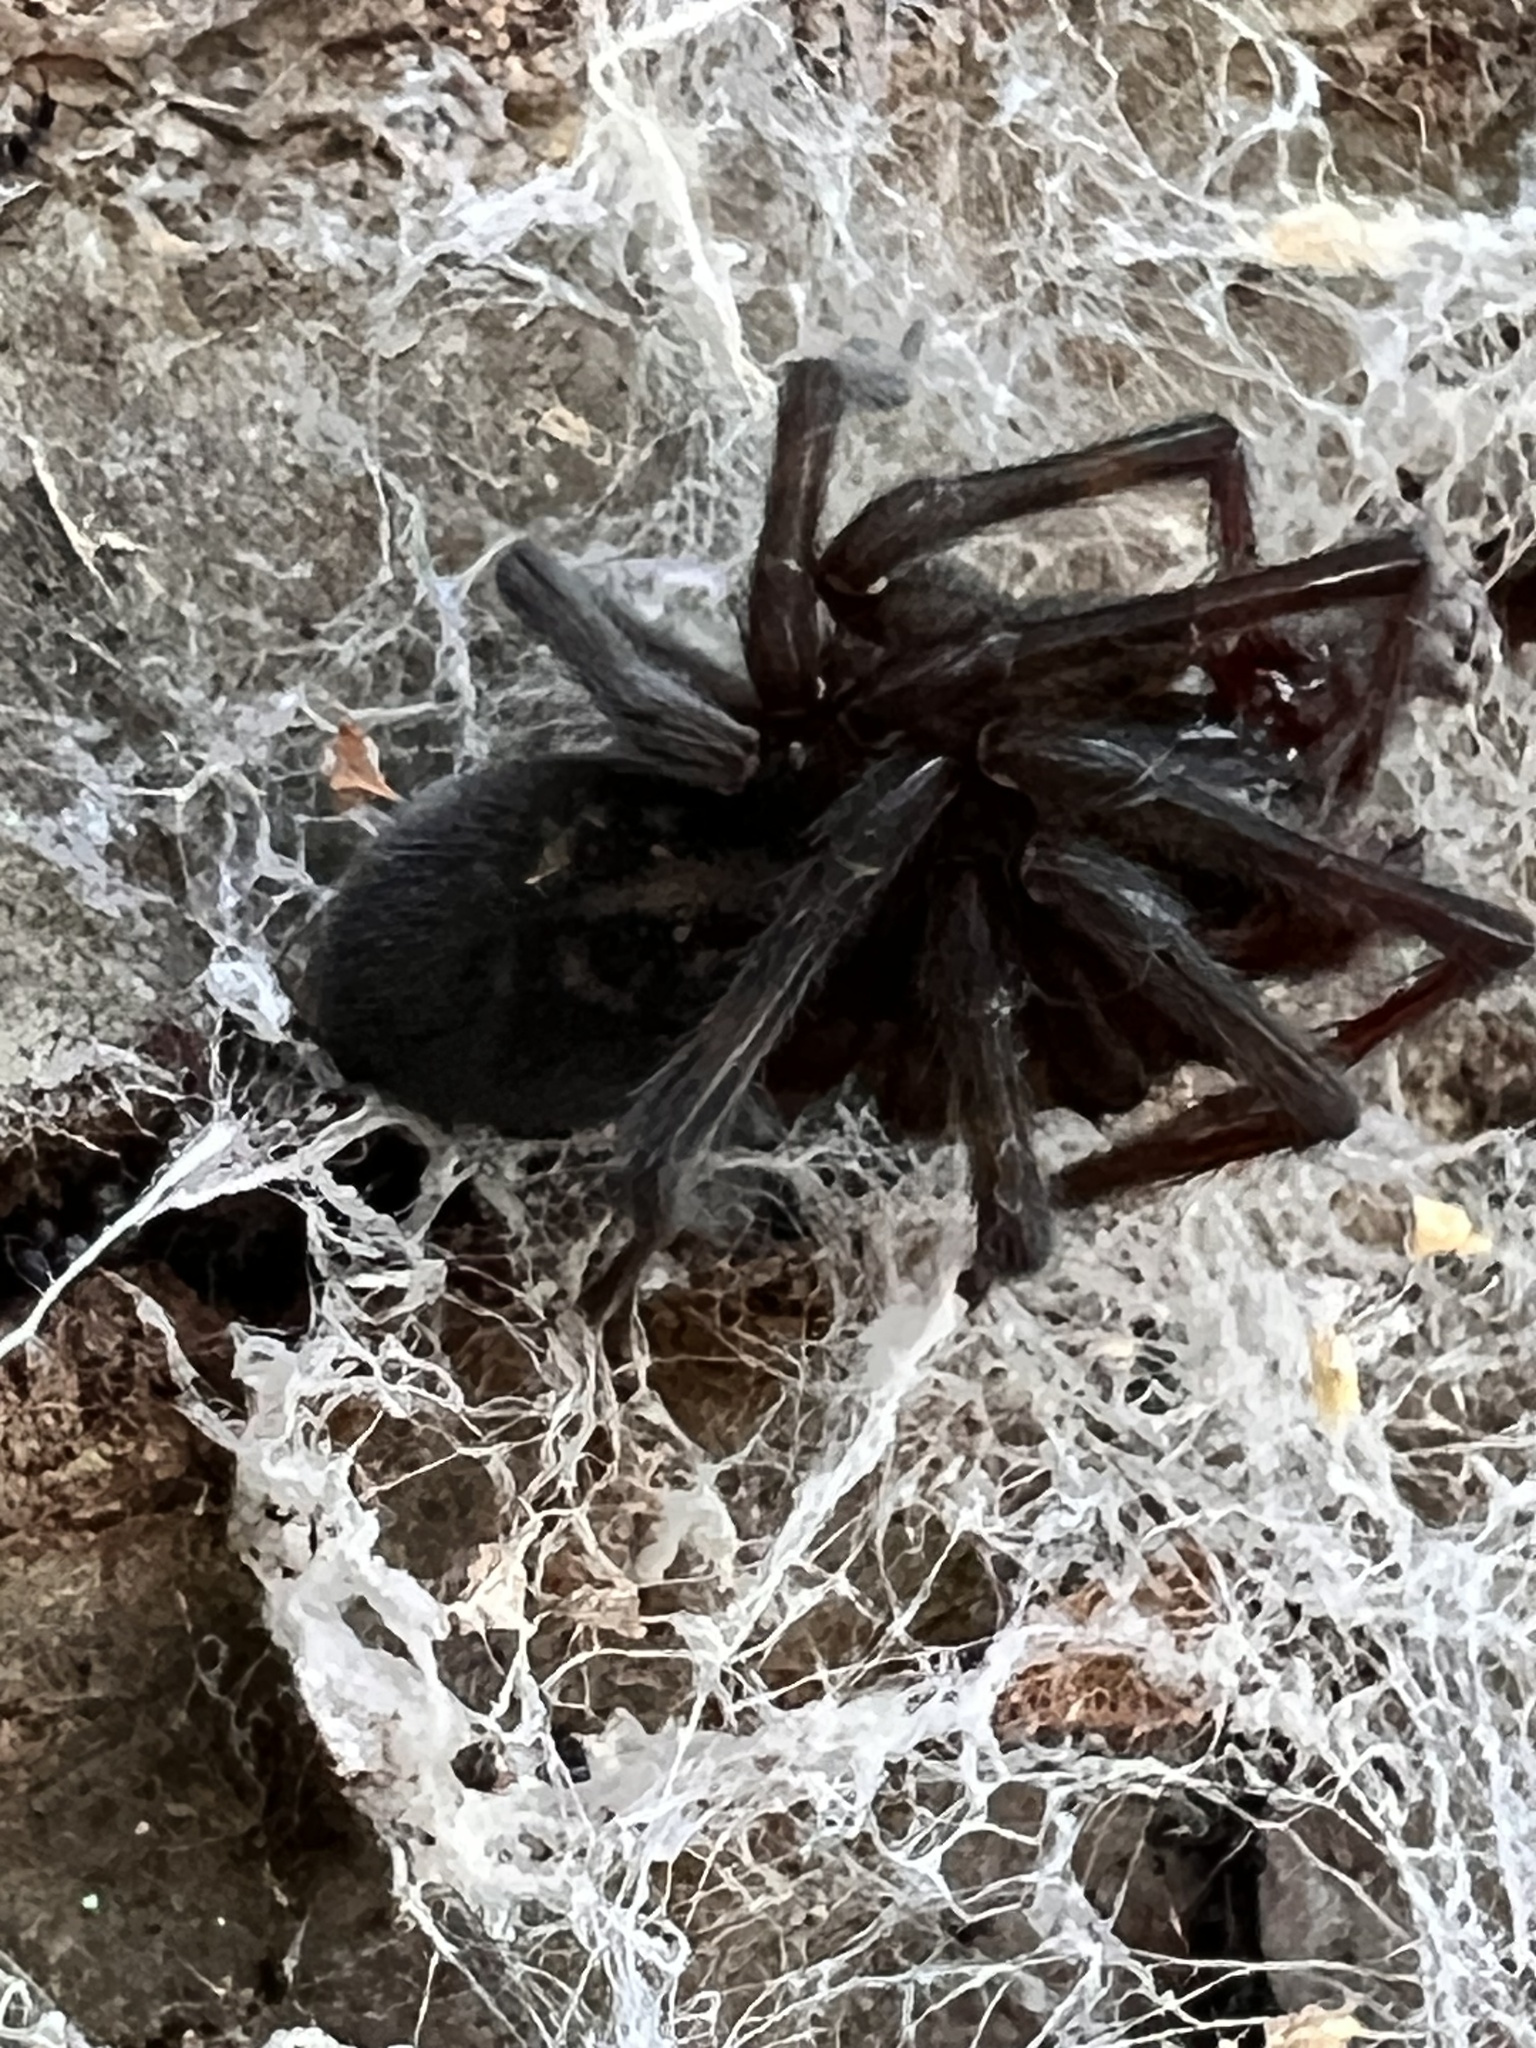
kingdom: Animalia
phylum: Arthropoda
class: Arachnida
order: Araneae
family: Amaurobiidae
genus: Amaurobius
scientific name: Amaurobius ferox
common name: Black laceweaver
